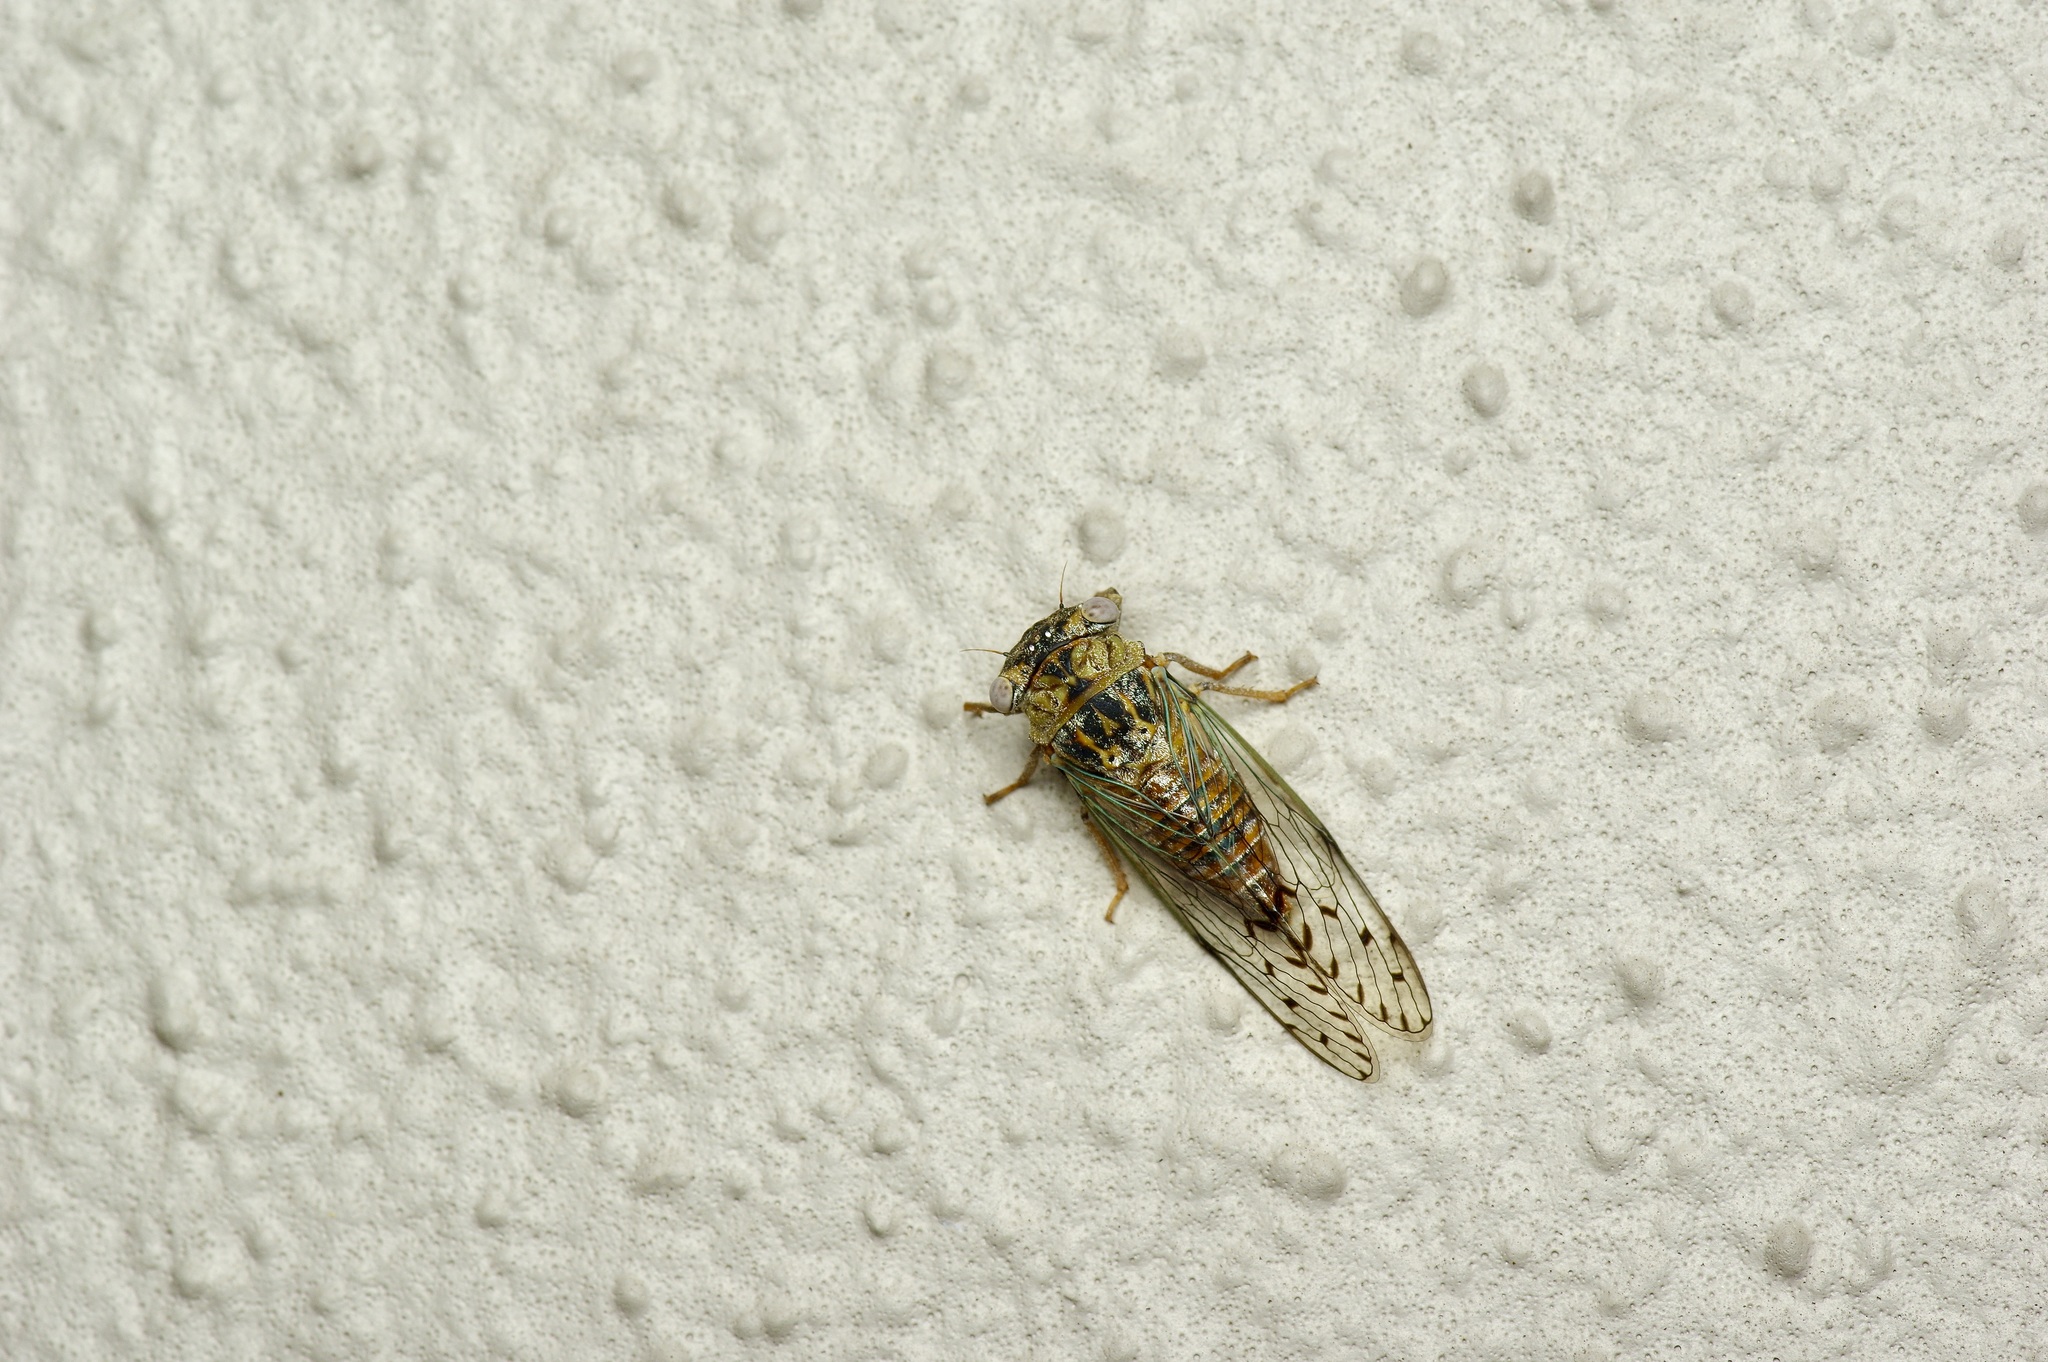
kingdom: Animalia
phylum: Arthropoda
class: Insecta
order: Hemiptera
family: Cicadidae
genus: Pacarina
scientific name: Pacarina puella
